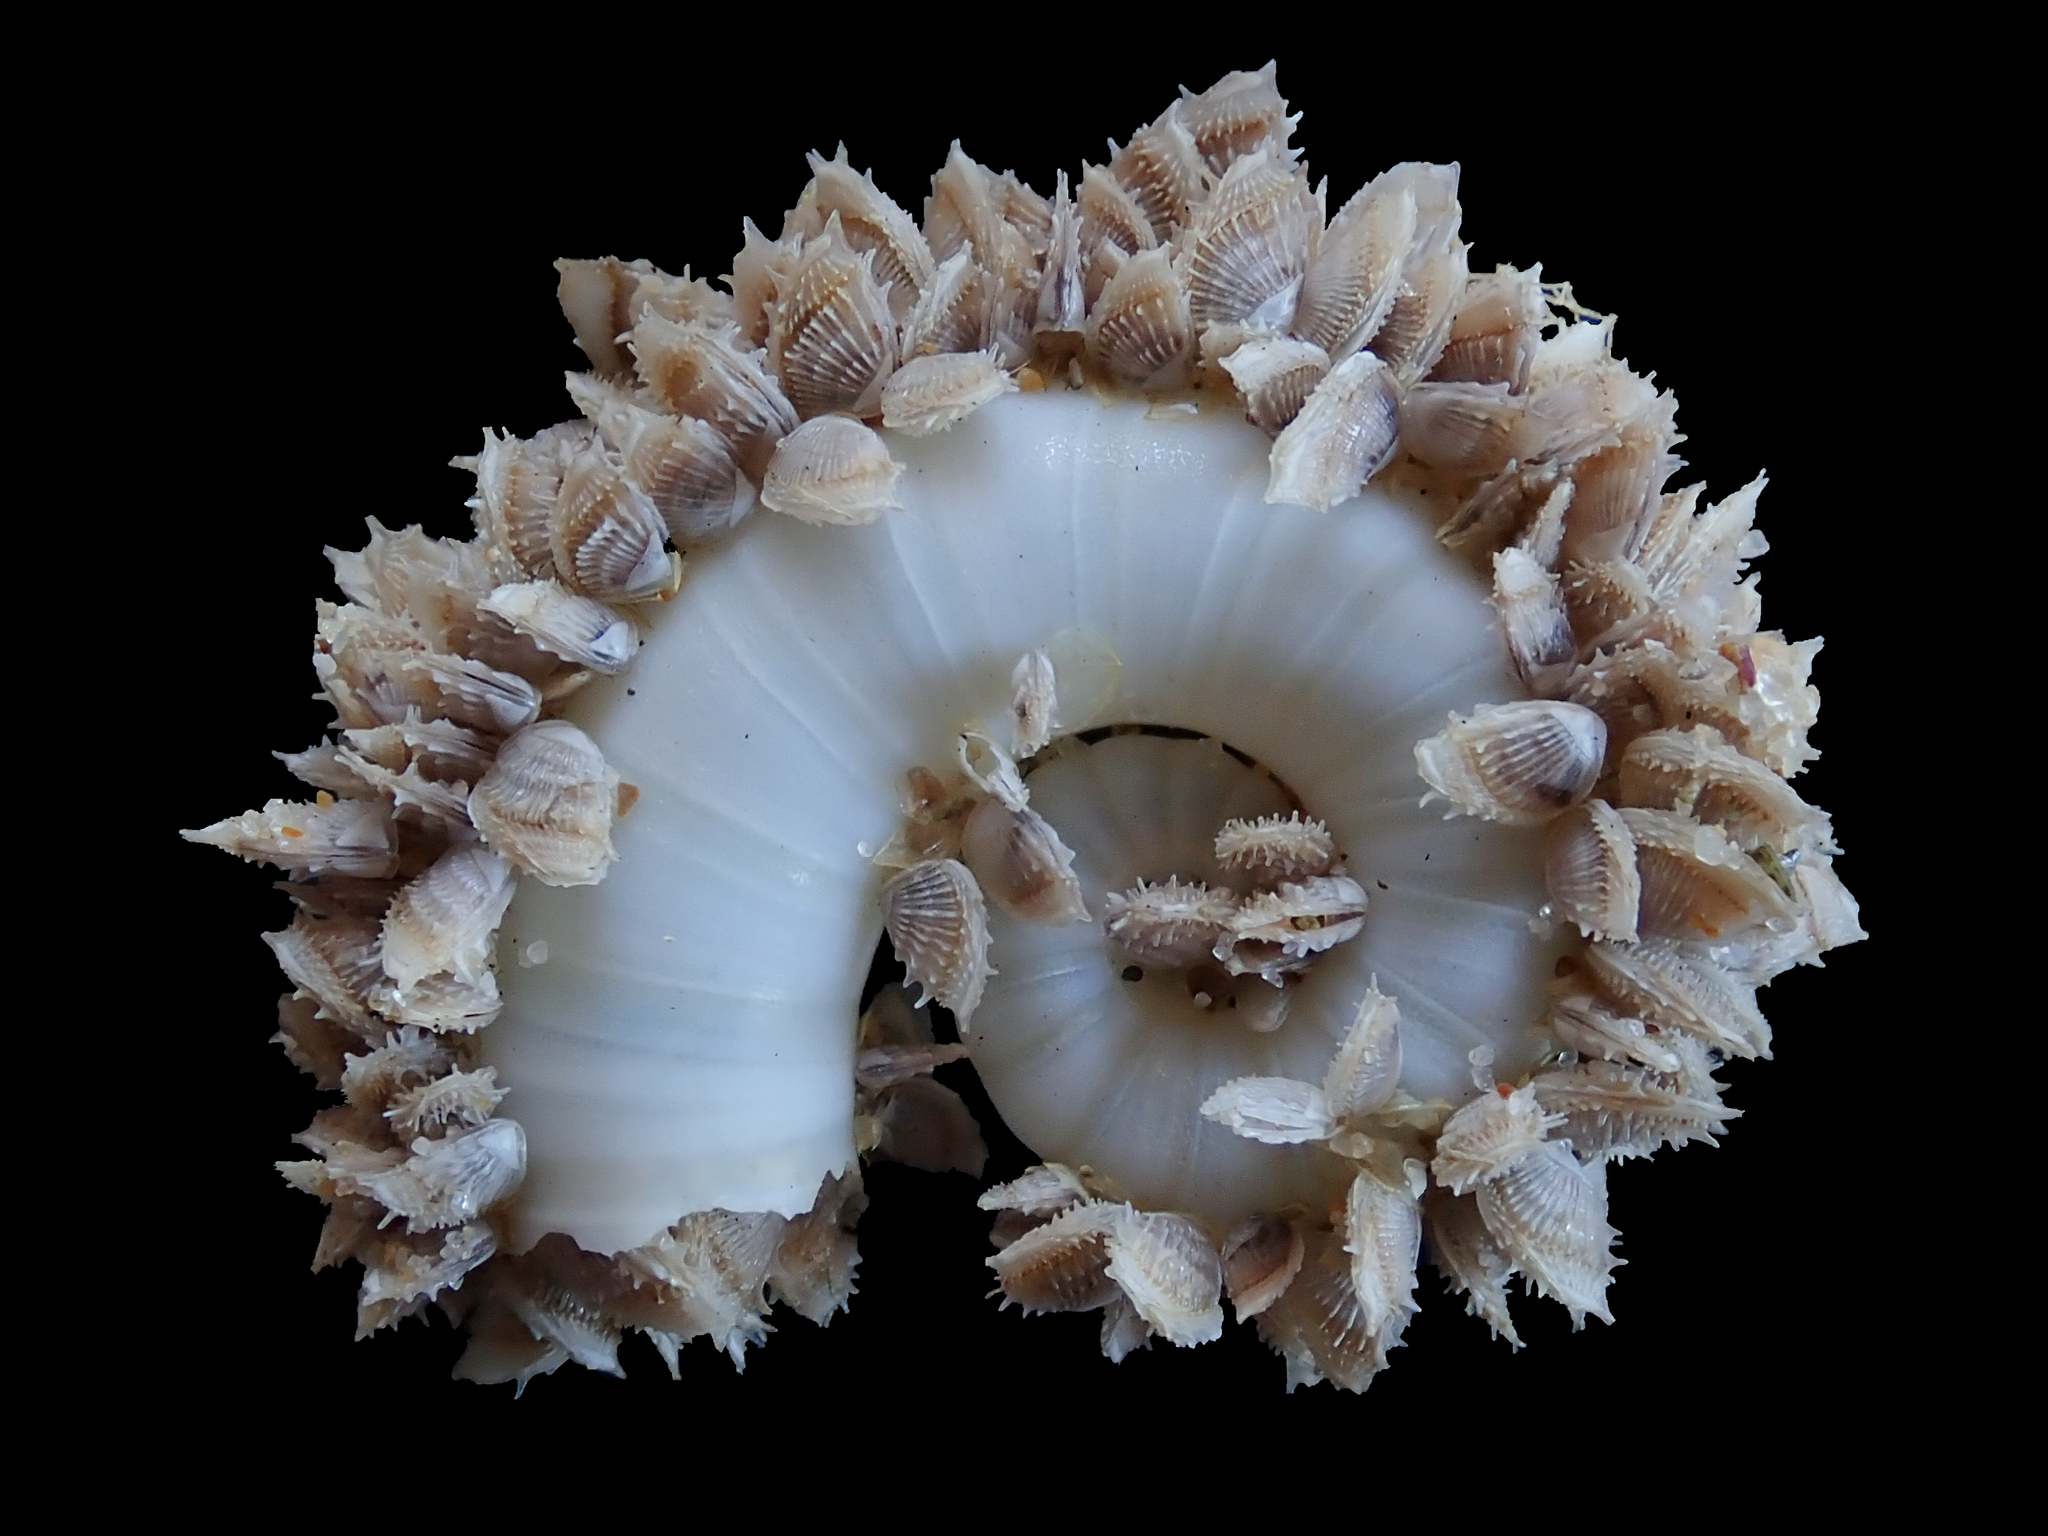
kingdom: Animalia
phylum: Arthropoda
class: Maxillopoda
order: Pedunculata
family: Lepadidae
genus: Lepas
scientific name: Lepas pectinata
